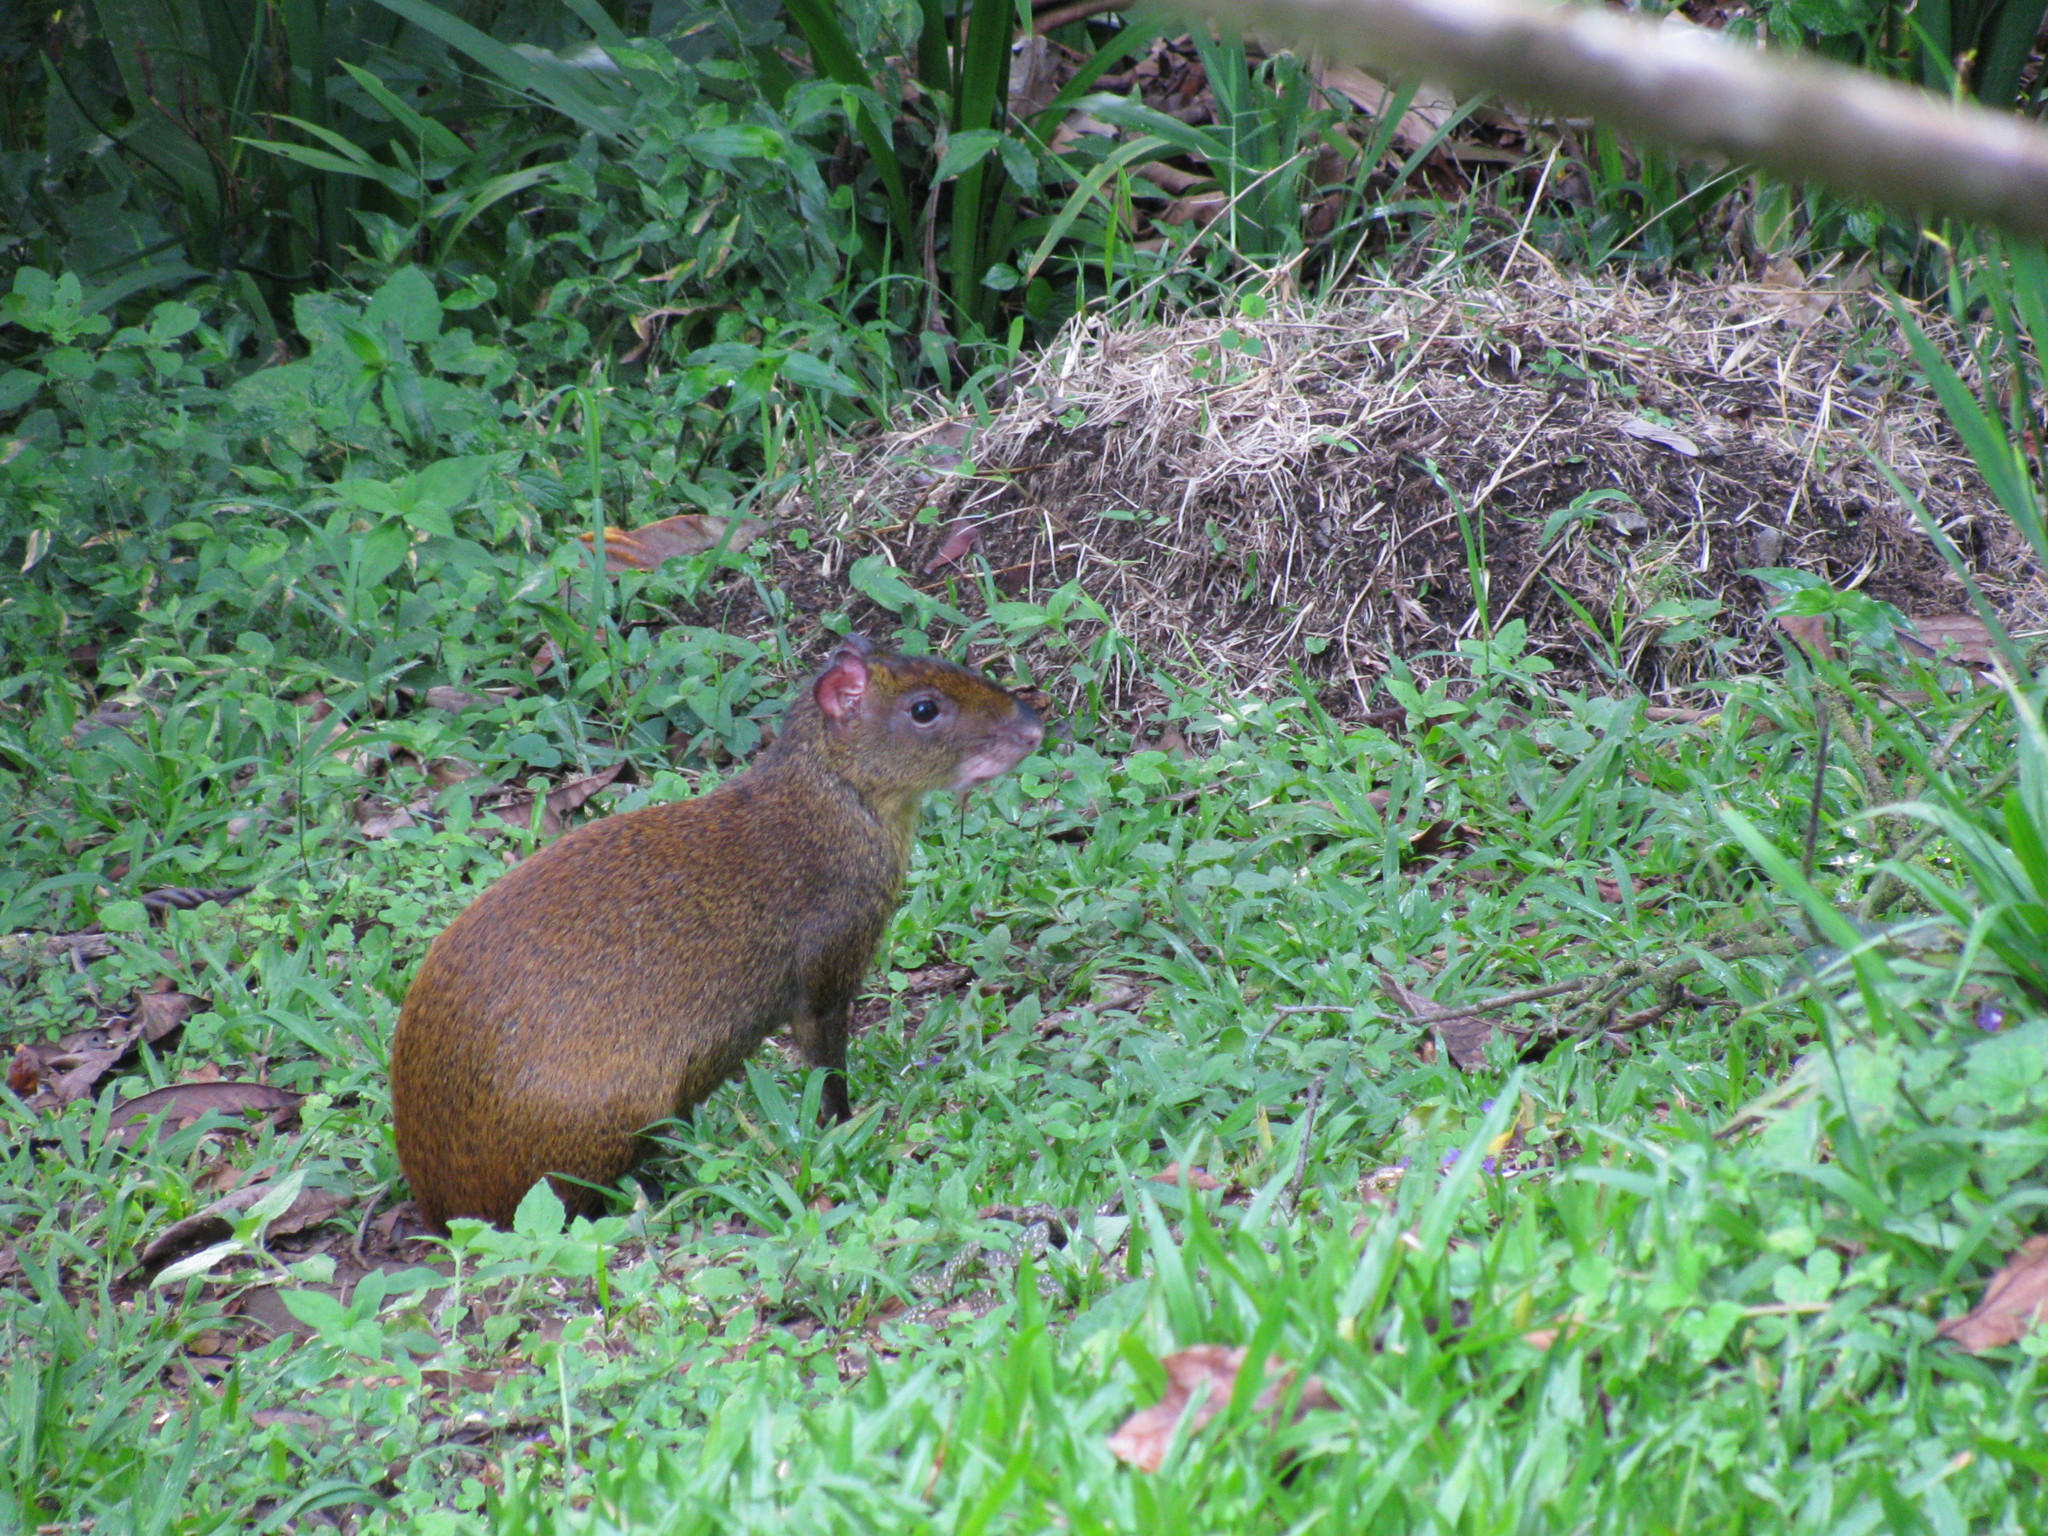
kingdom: Animalia
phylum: Chordata
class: Mammalia
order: Rodentia
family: Dasyproctidae
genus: Dasyprocta
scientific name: Dasyprocta punctata
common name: Central american agouti
